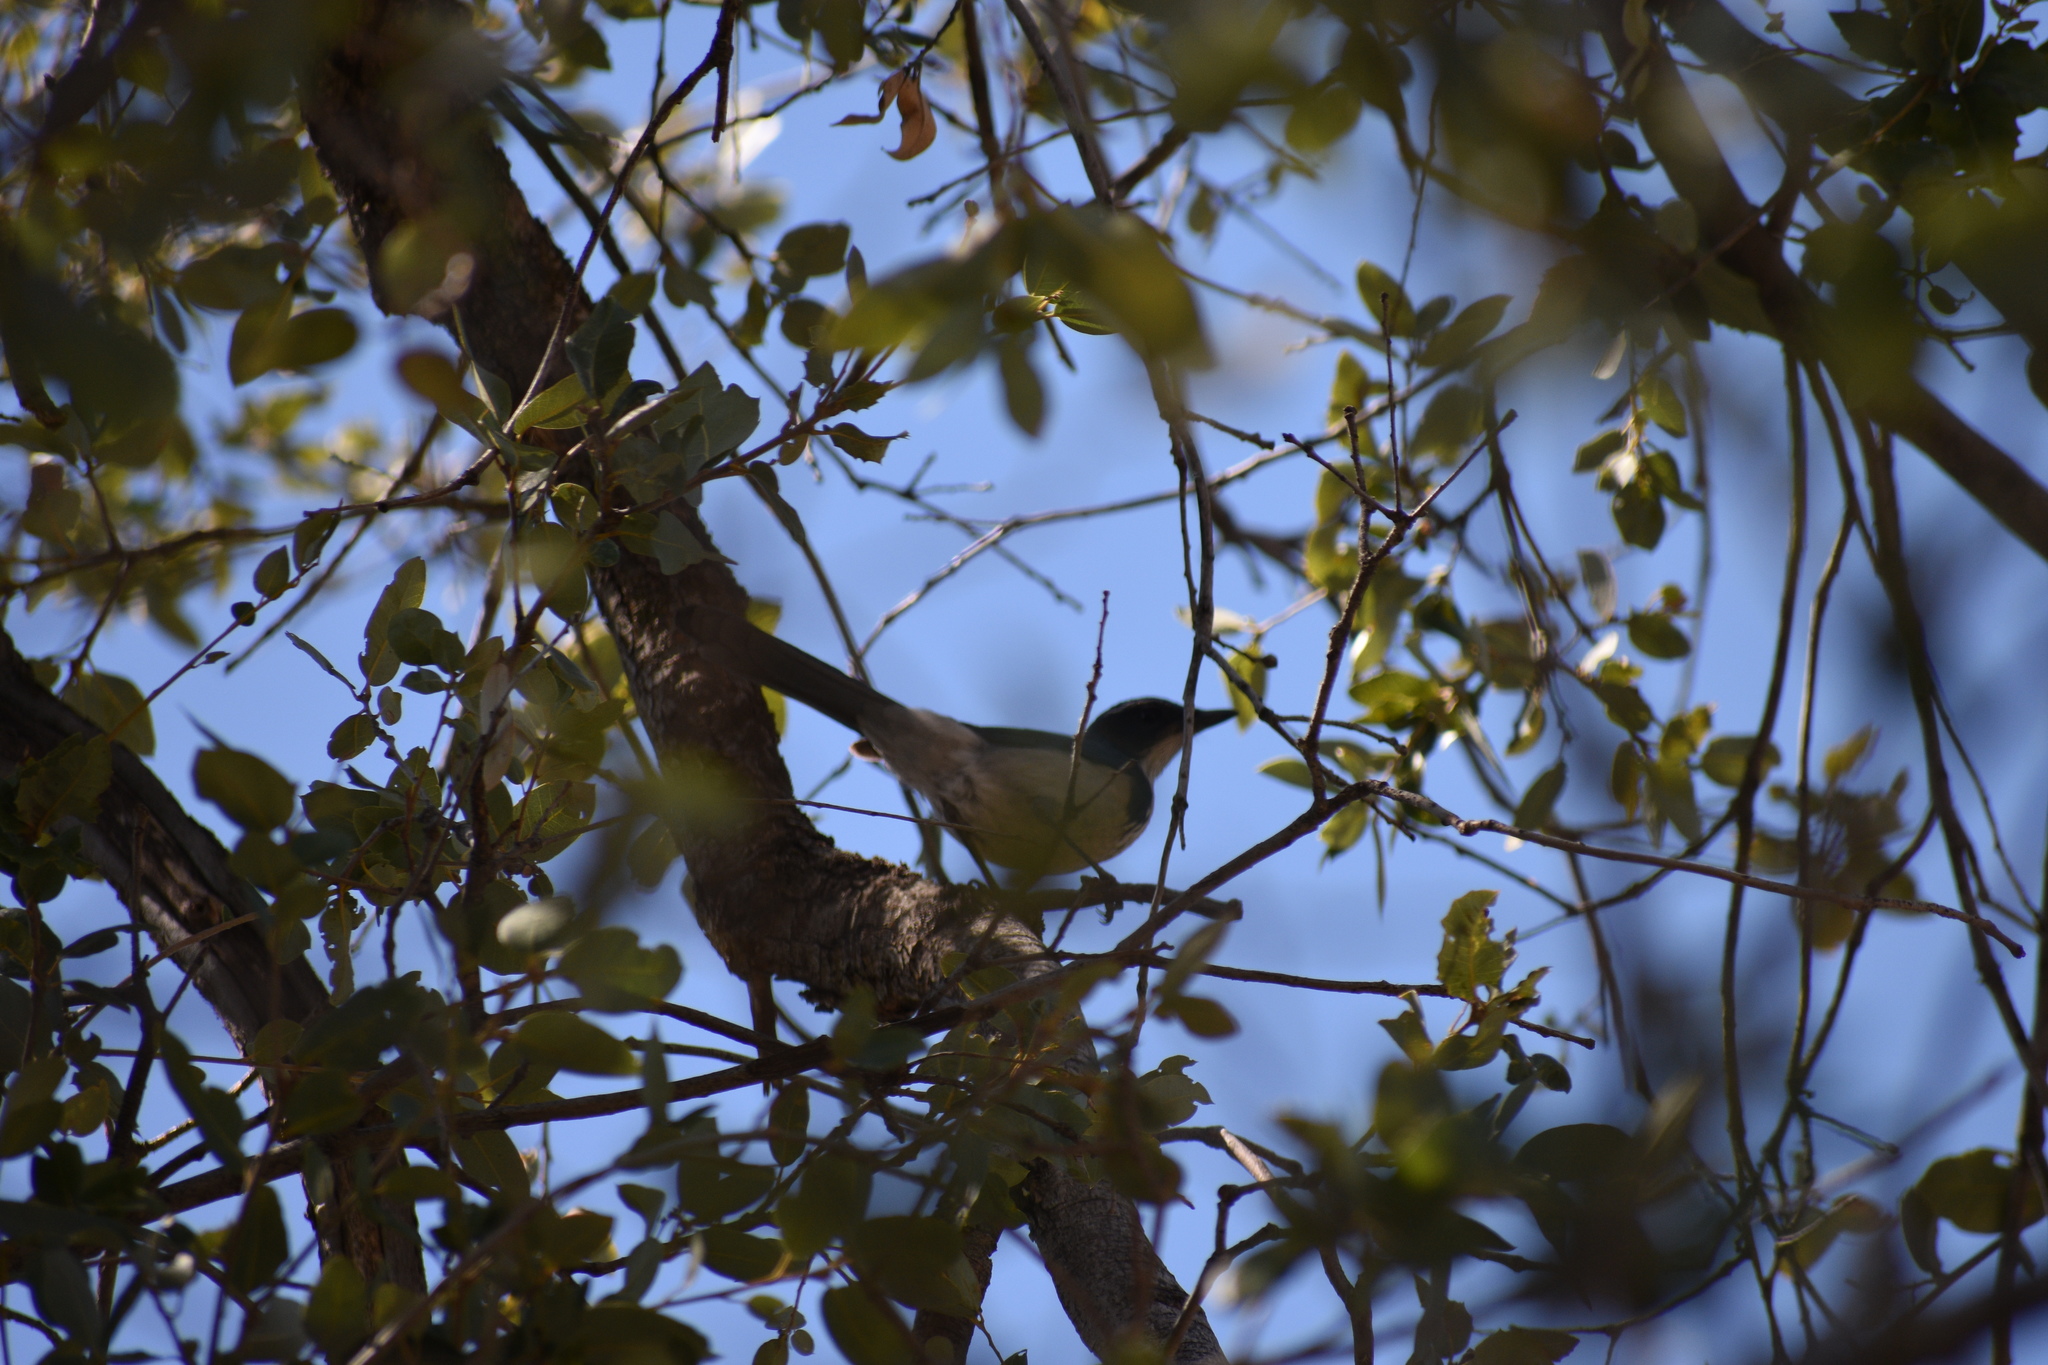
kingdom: Animalia
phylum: Chordata
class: Aves
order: Passeriformes
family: Corvidae
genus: Aphelocoma
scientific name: Aphelocoma californica
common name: California scrub-jay
